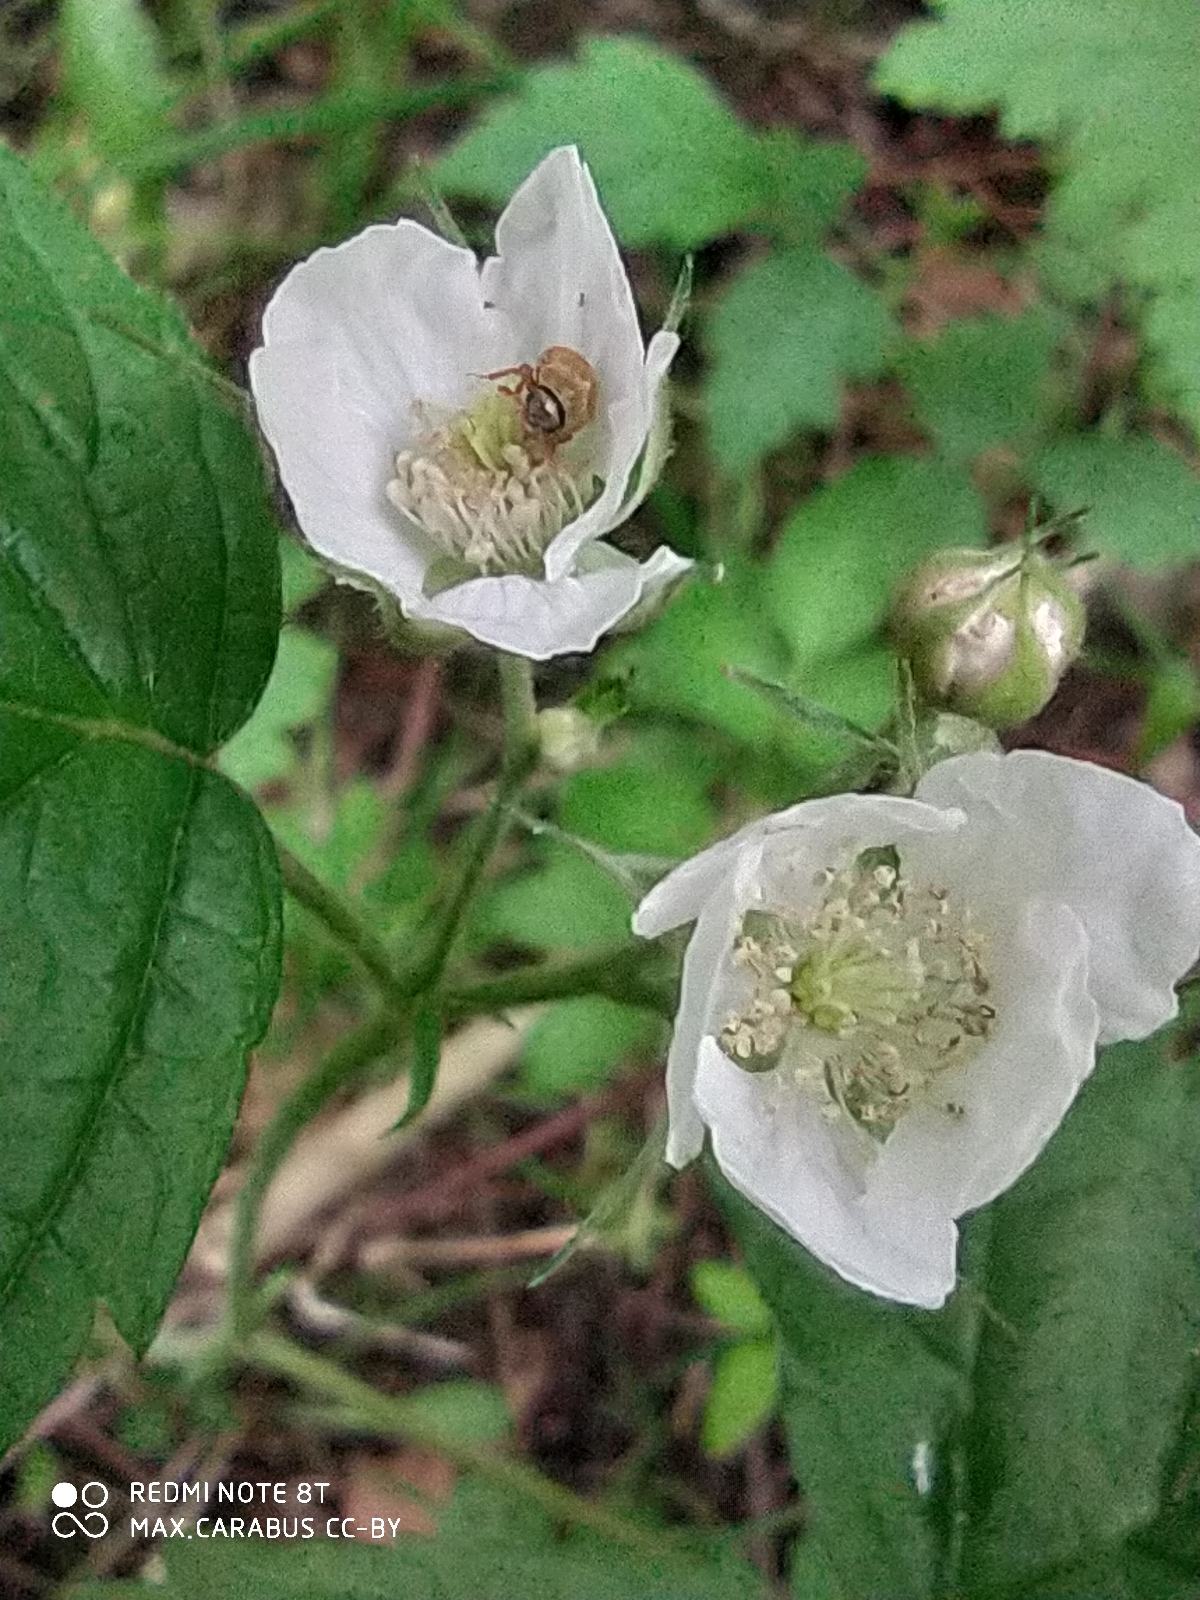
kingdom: Plantae
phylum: Tracheophyta
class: Magnoliopsida
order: Rosales
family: Rosaceae
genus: Rubus
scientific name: Rubus caesius
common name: Dewberry
